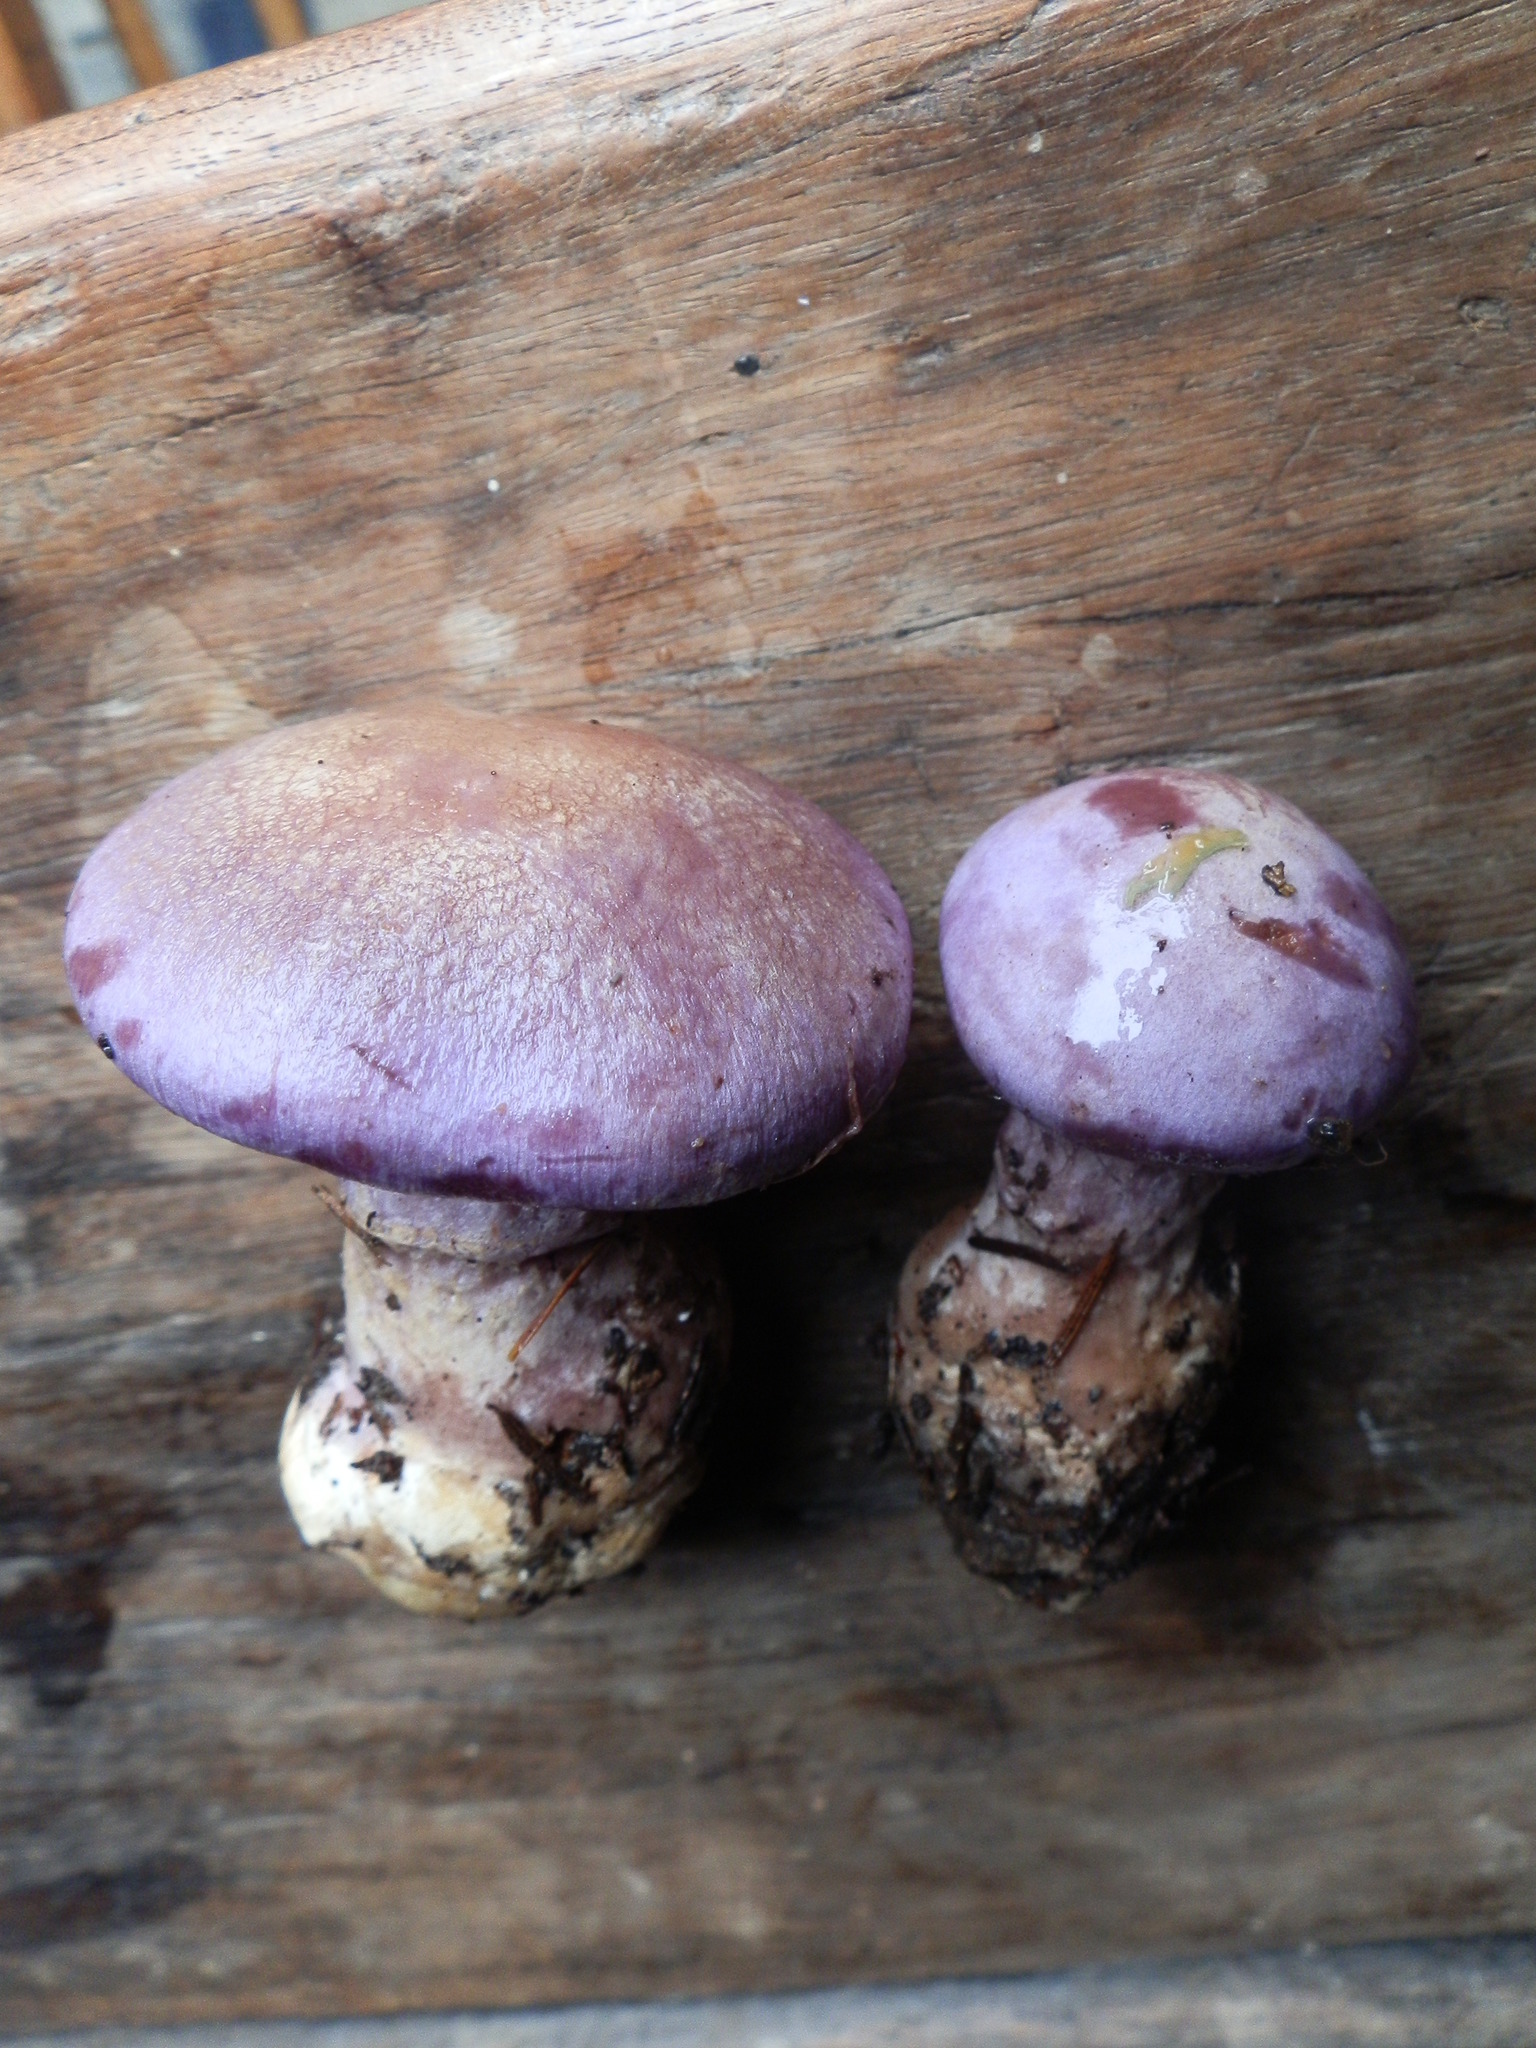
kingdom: Fungi
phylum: Basidiomycota
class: Agaricomycetes
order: Agaricales
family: Cortinariaceae
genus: Cortinarius
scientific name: Cortinarius traganus
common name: Gassy webcap
